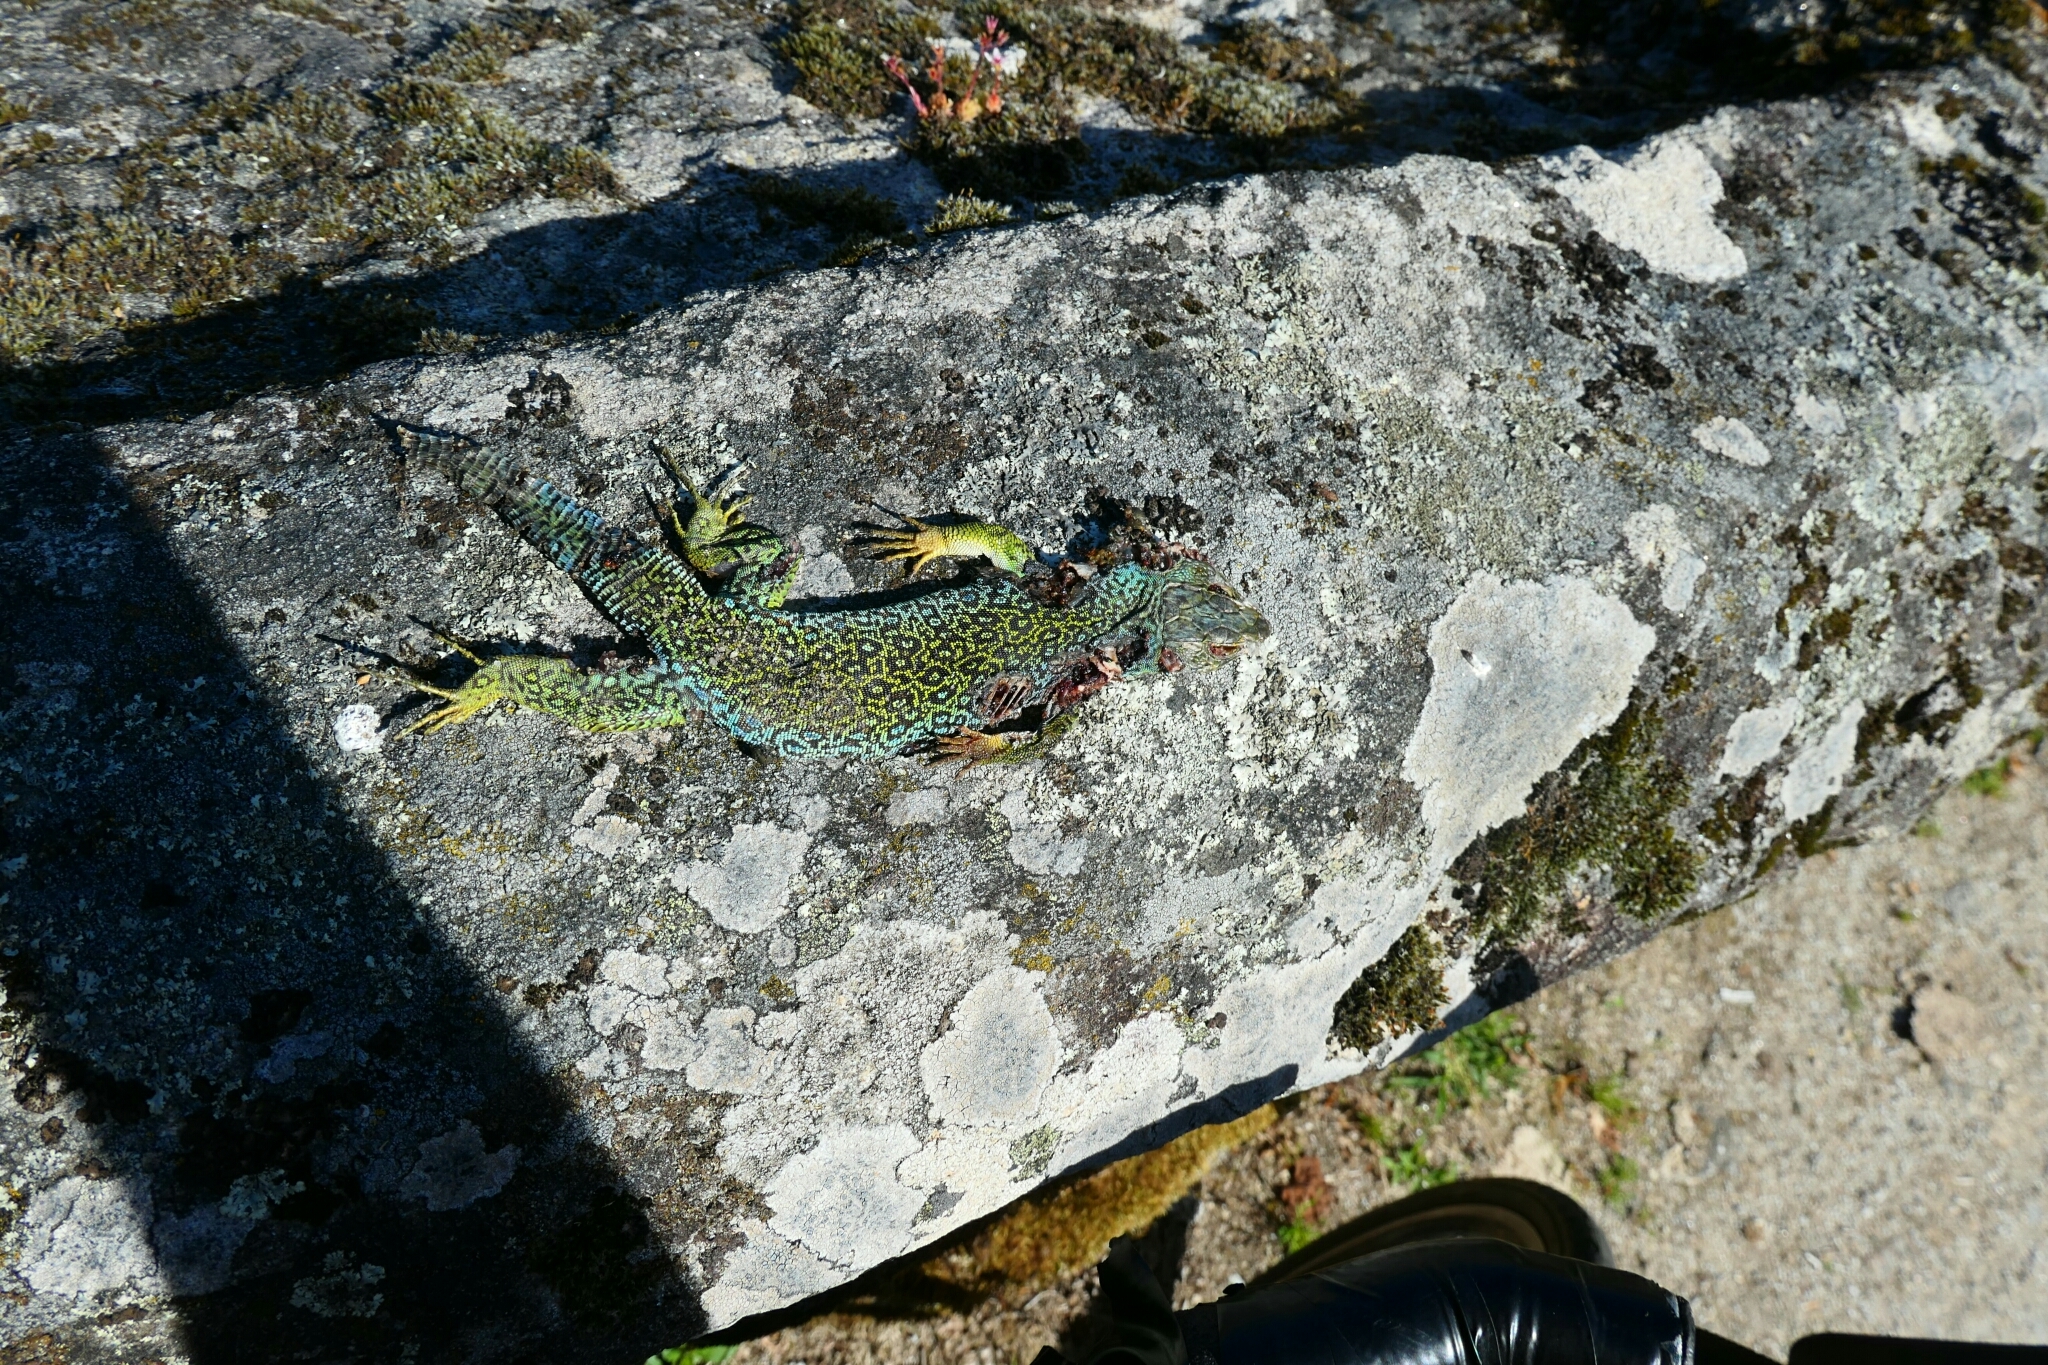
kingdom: Animalia
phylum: Chordata
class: Squamata
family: Lacertidae
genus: Timon
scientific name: Timon lepidus
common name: Ocellated lizard
